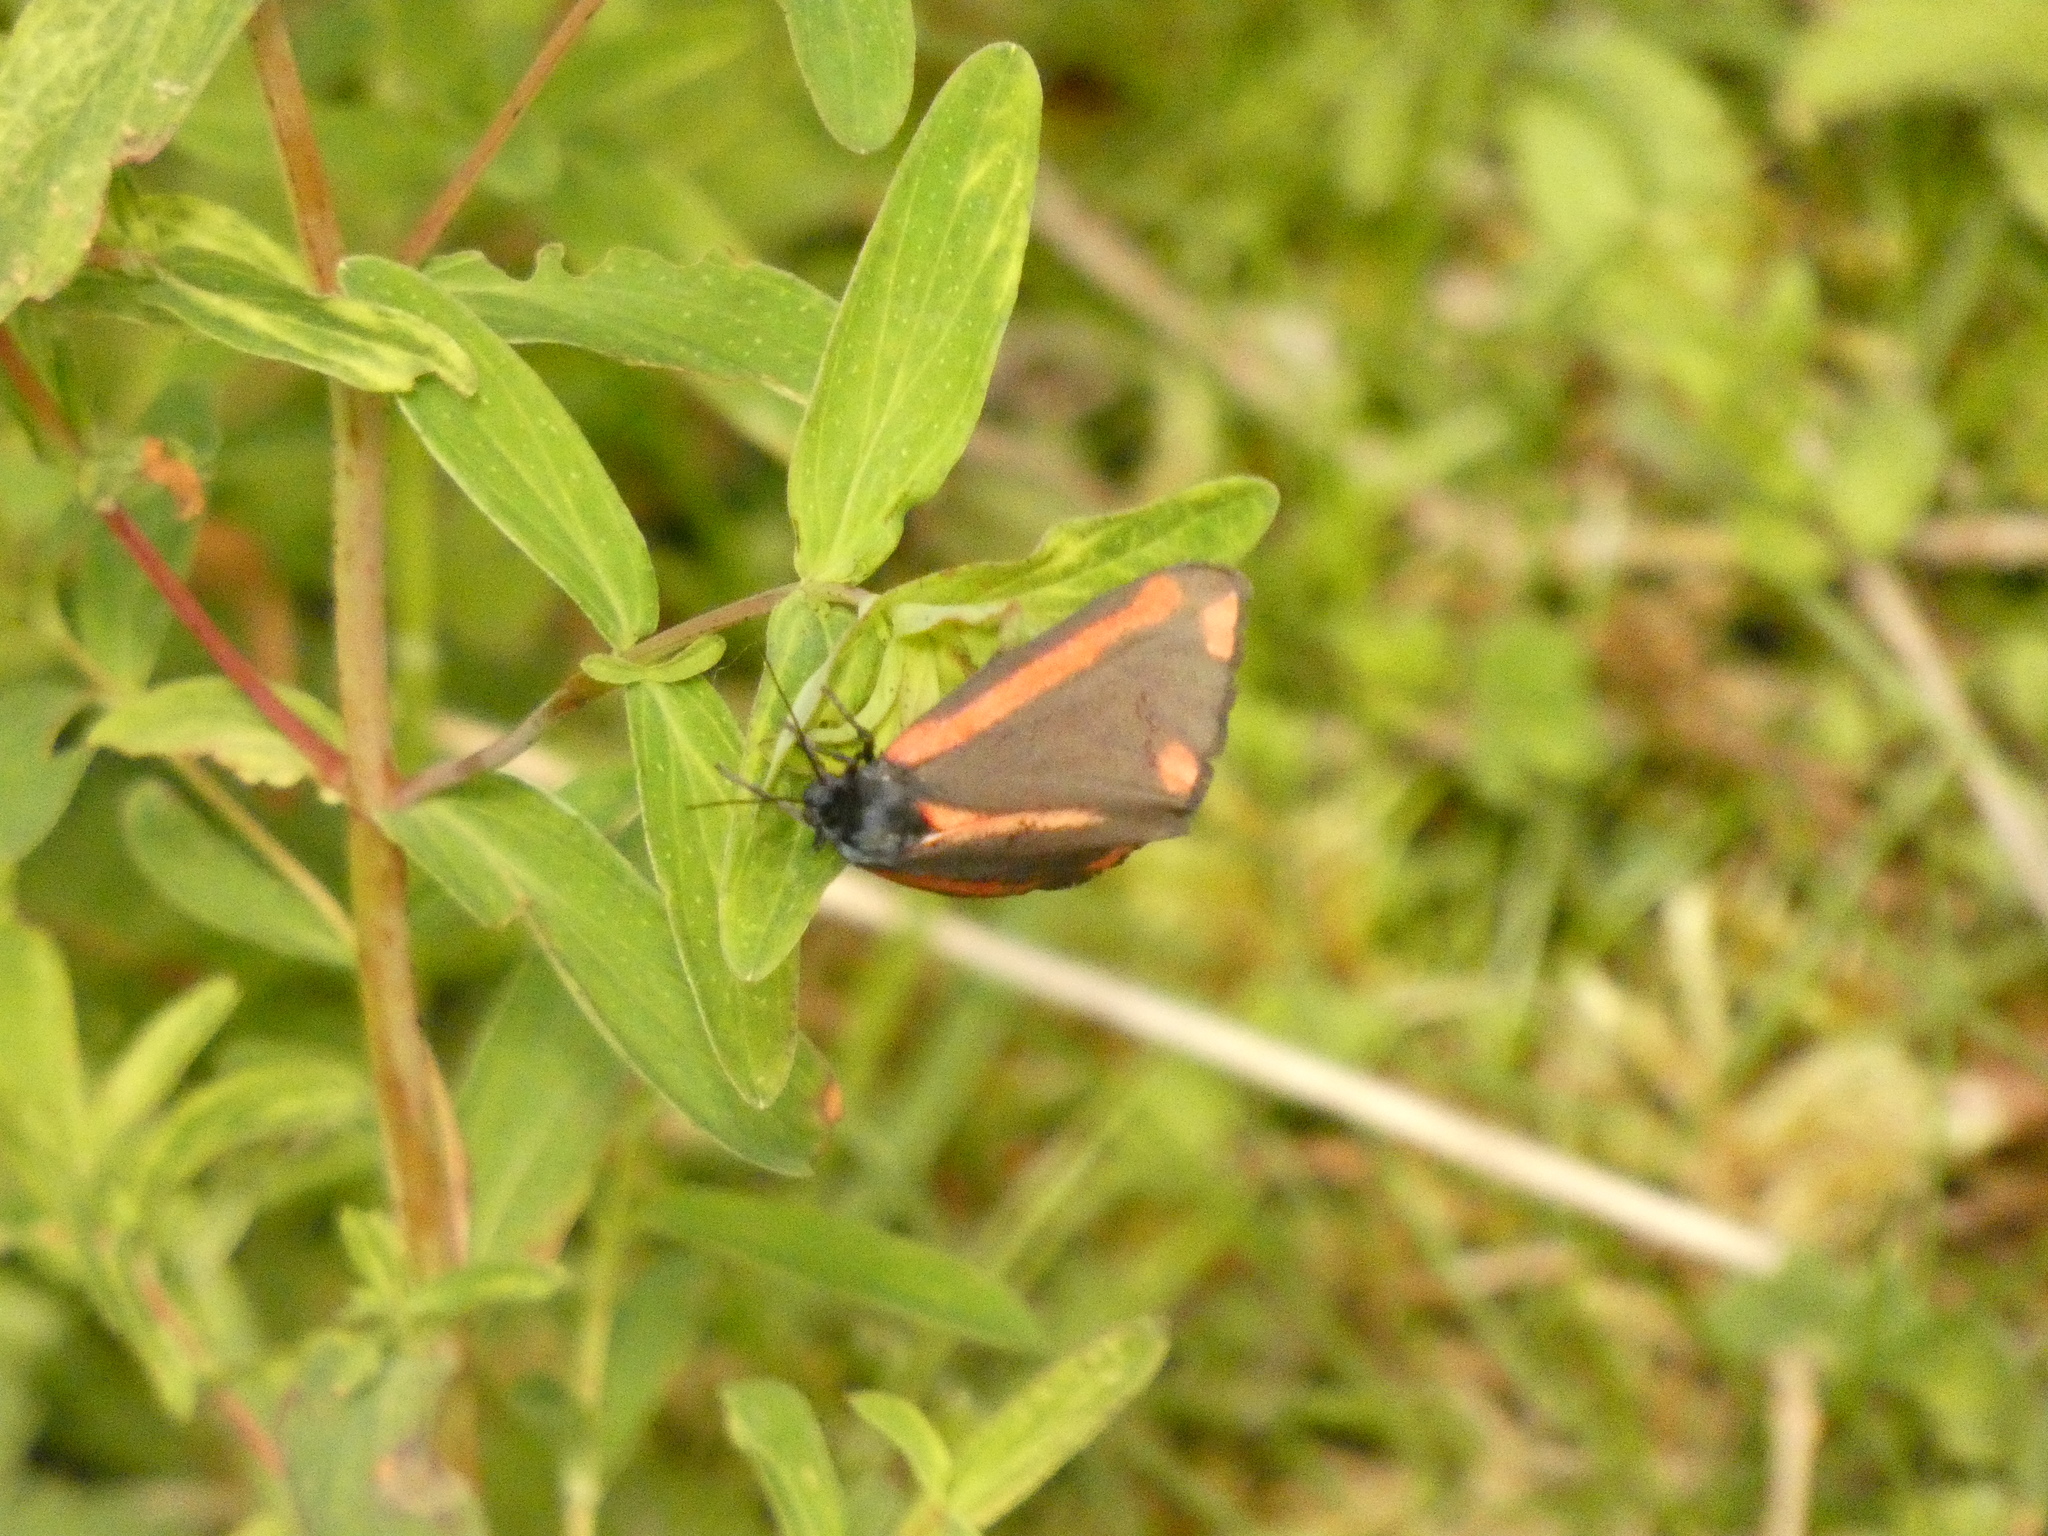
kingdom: Animalia
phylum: Arthropoda
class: Insecta
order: Lepidoptera
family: Erebidae
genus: Tyria
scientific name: Tyria jacobaeae
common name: Cinnabar
